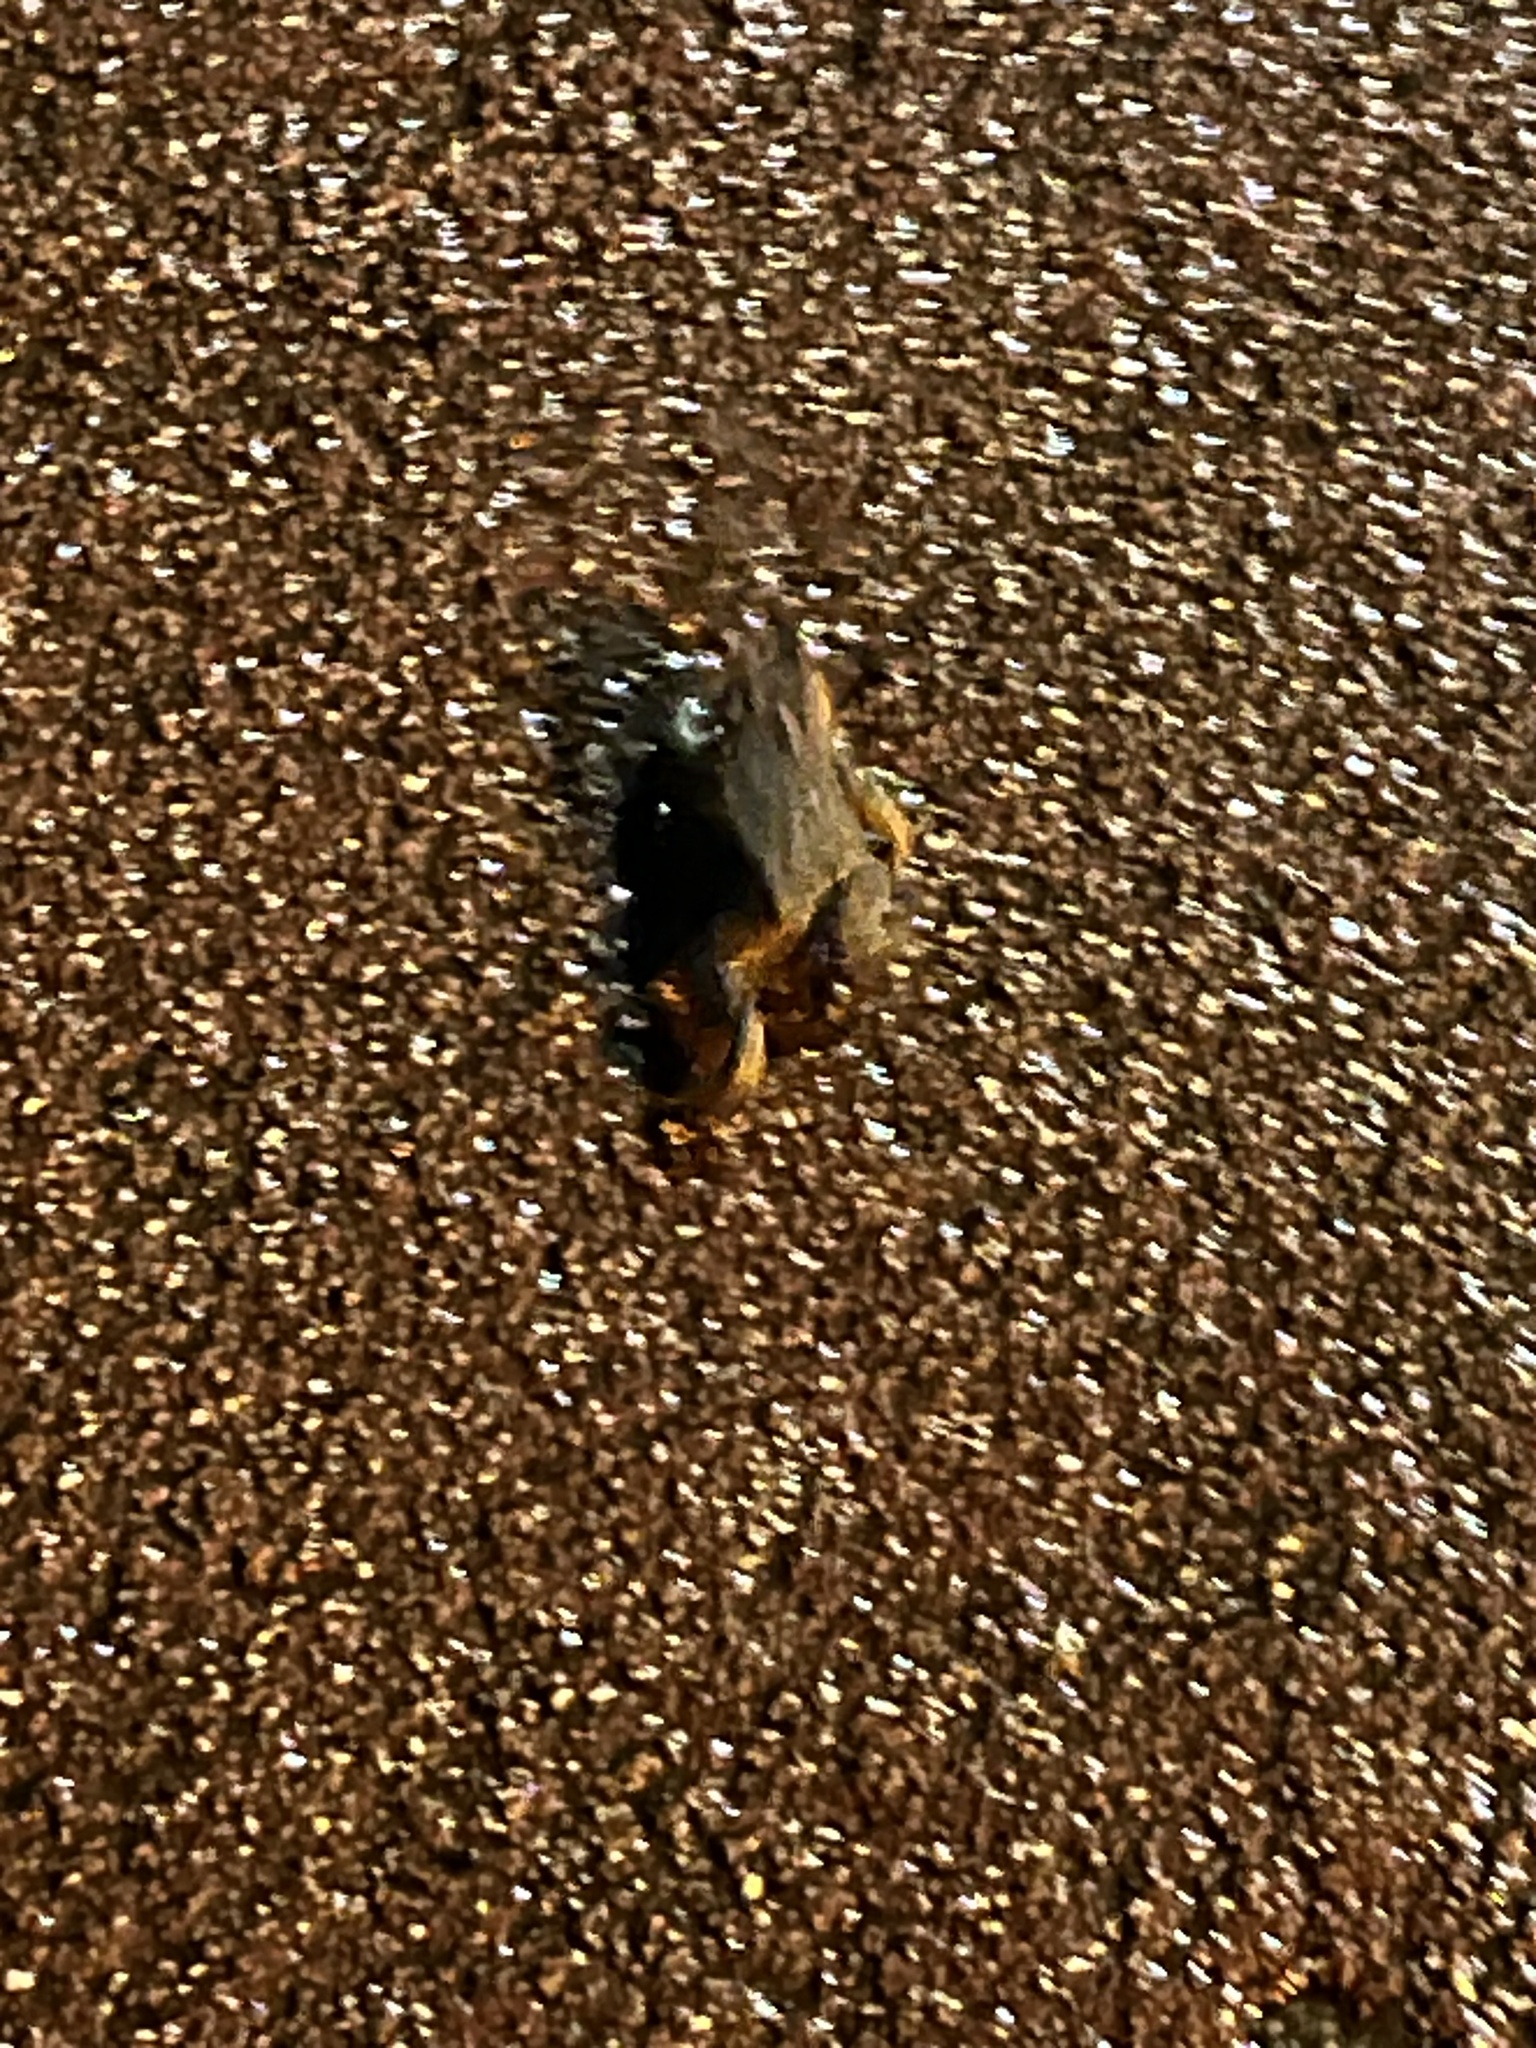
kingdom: Animalia
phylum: Chordata
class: Amphibia
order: Anura
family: Bufonidae
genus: Bufo
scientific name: Bufo bufo
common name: Common toad
